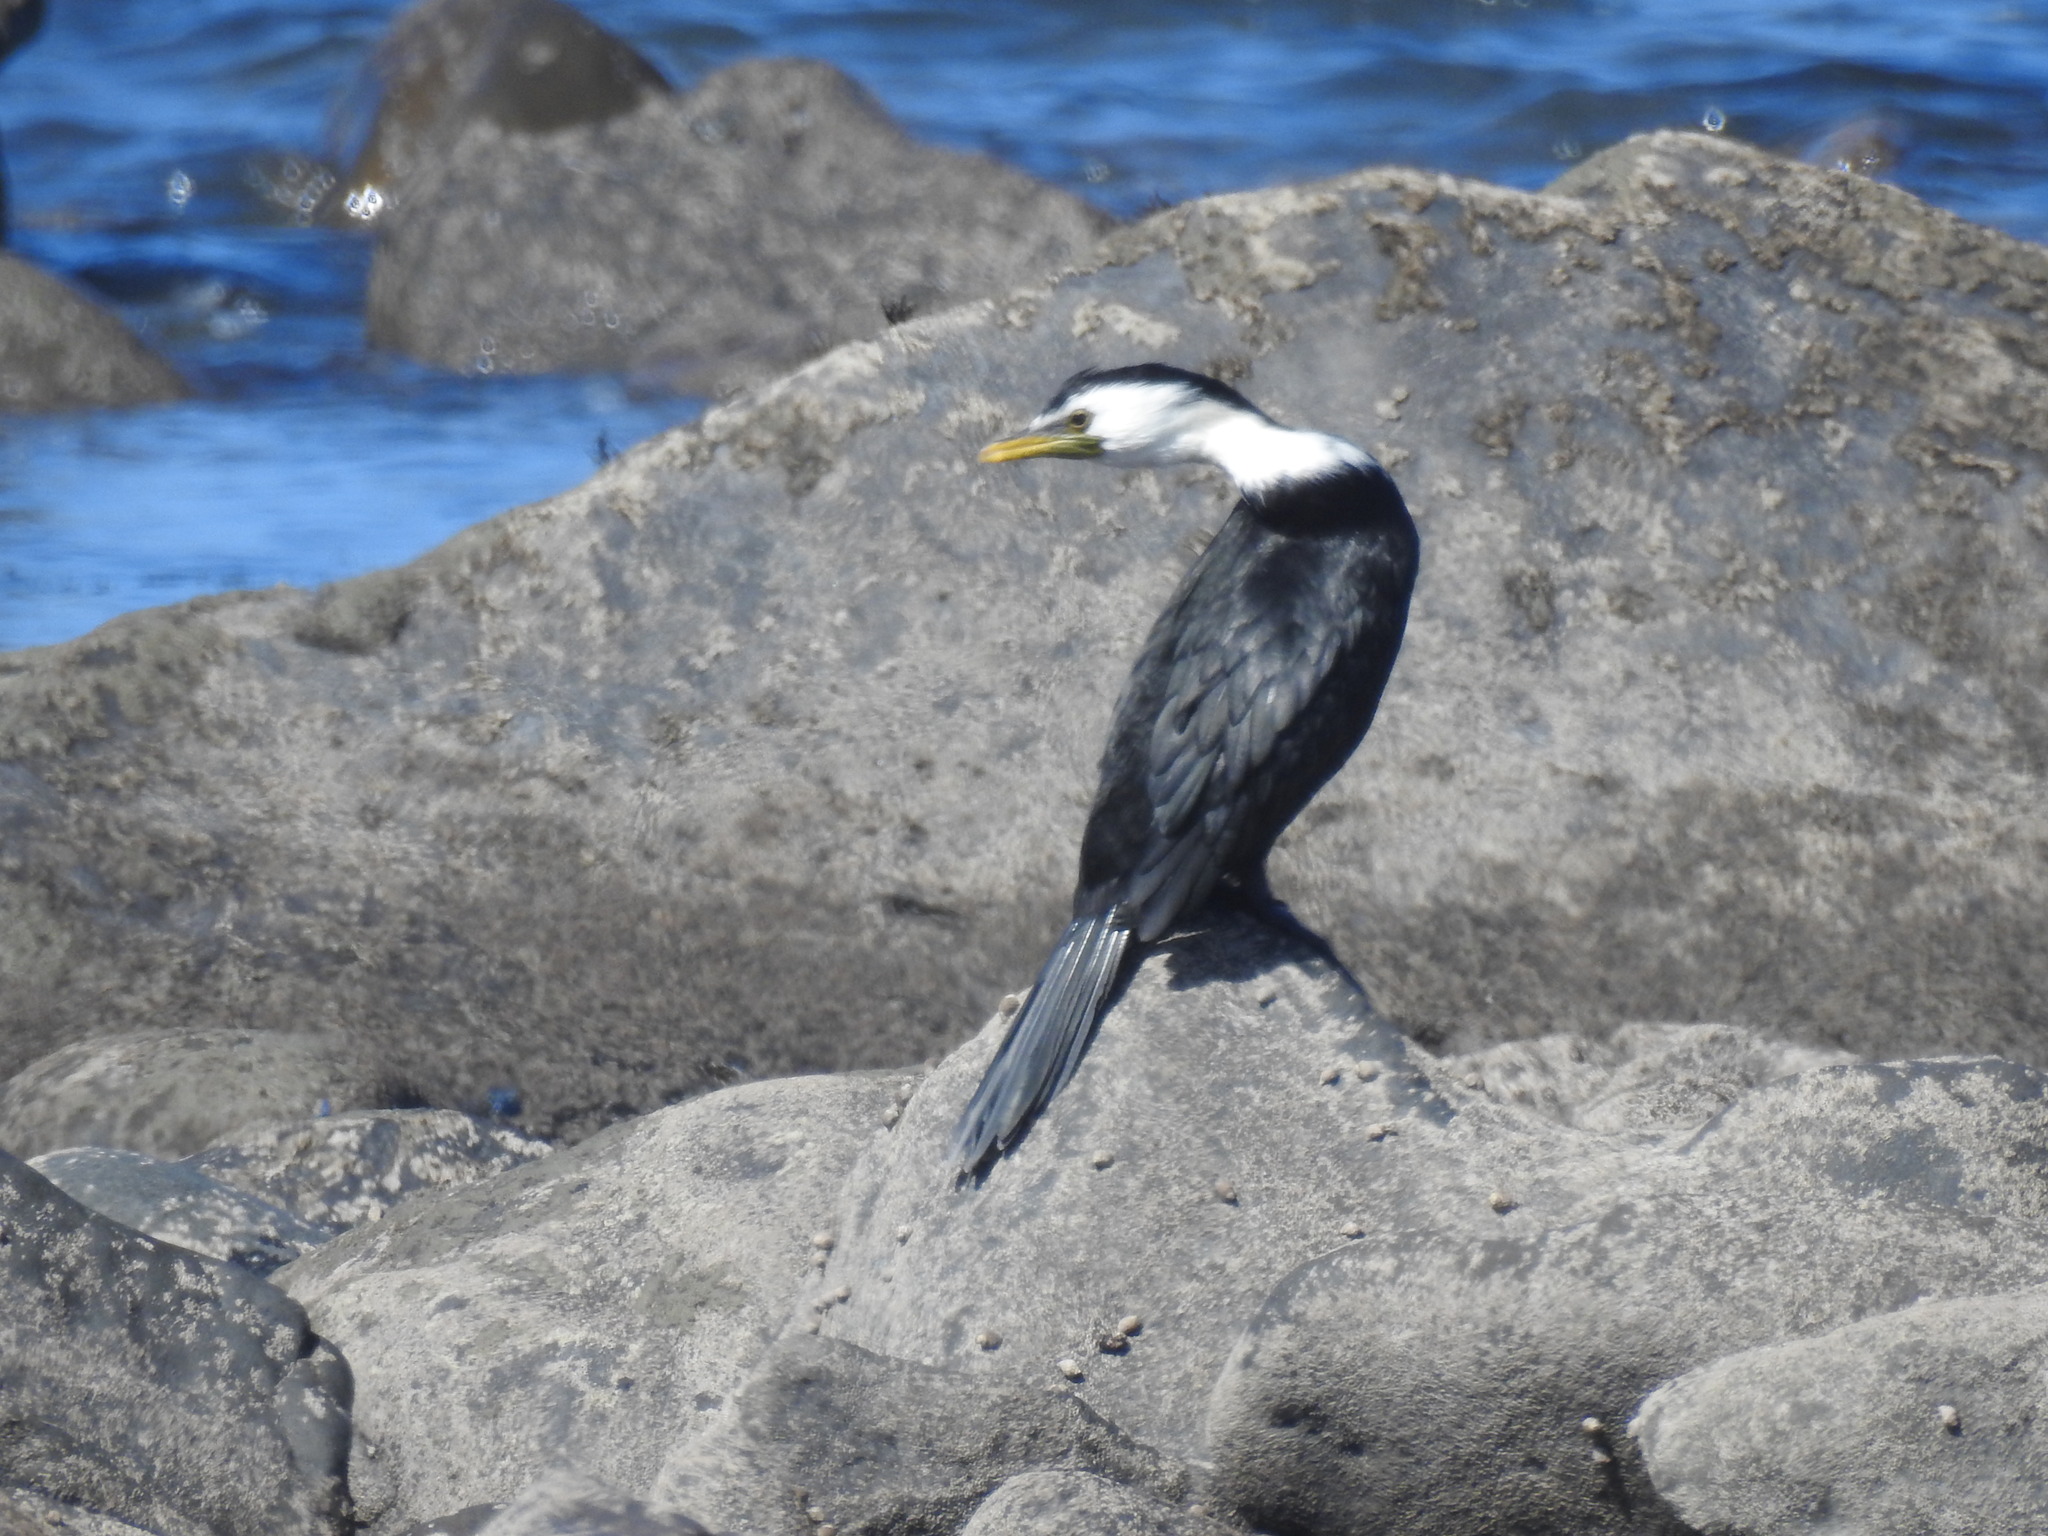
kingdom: Animalia
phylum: Chordata
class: Aves
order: Suliformes
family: Phalacrocoracidae
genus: Microcarbo
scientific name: Microcarbo melanoleucos
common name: Little pied cormorant
